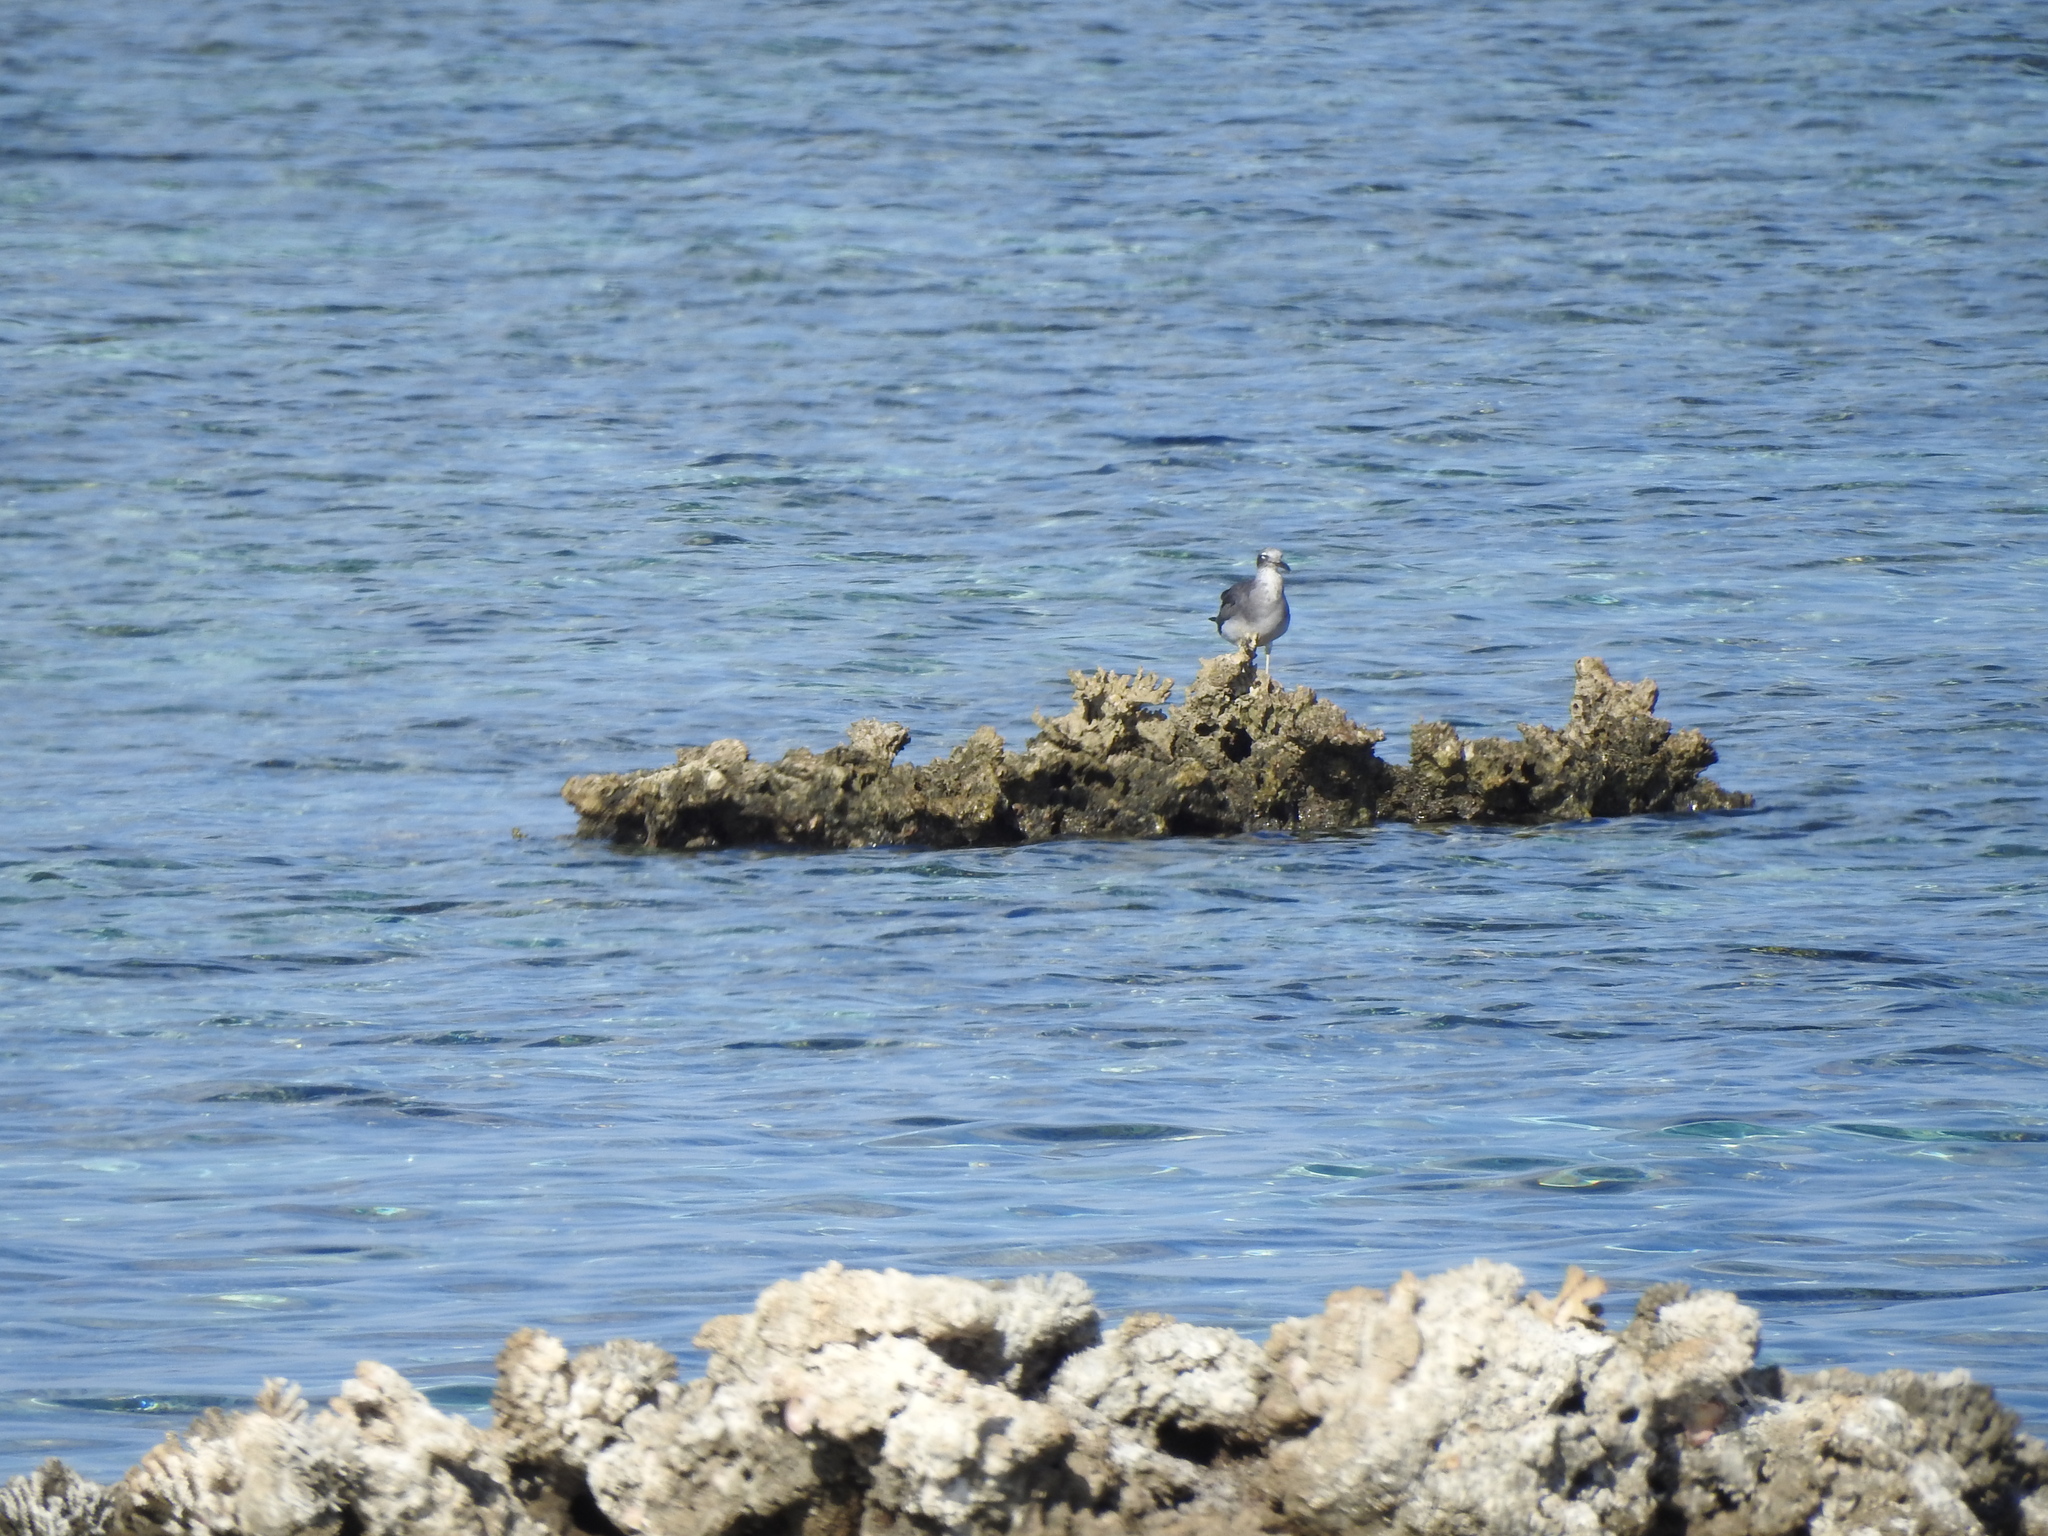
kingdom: Animalia
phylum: Chordata
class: Aves
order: Charadriiformes
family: Laridae
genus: Ichthyaetus
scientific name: Ichthyaetus leucophthalmus
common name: White-eyed gull
